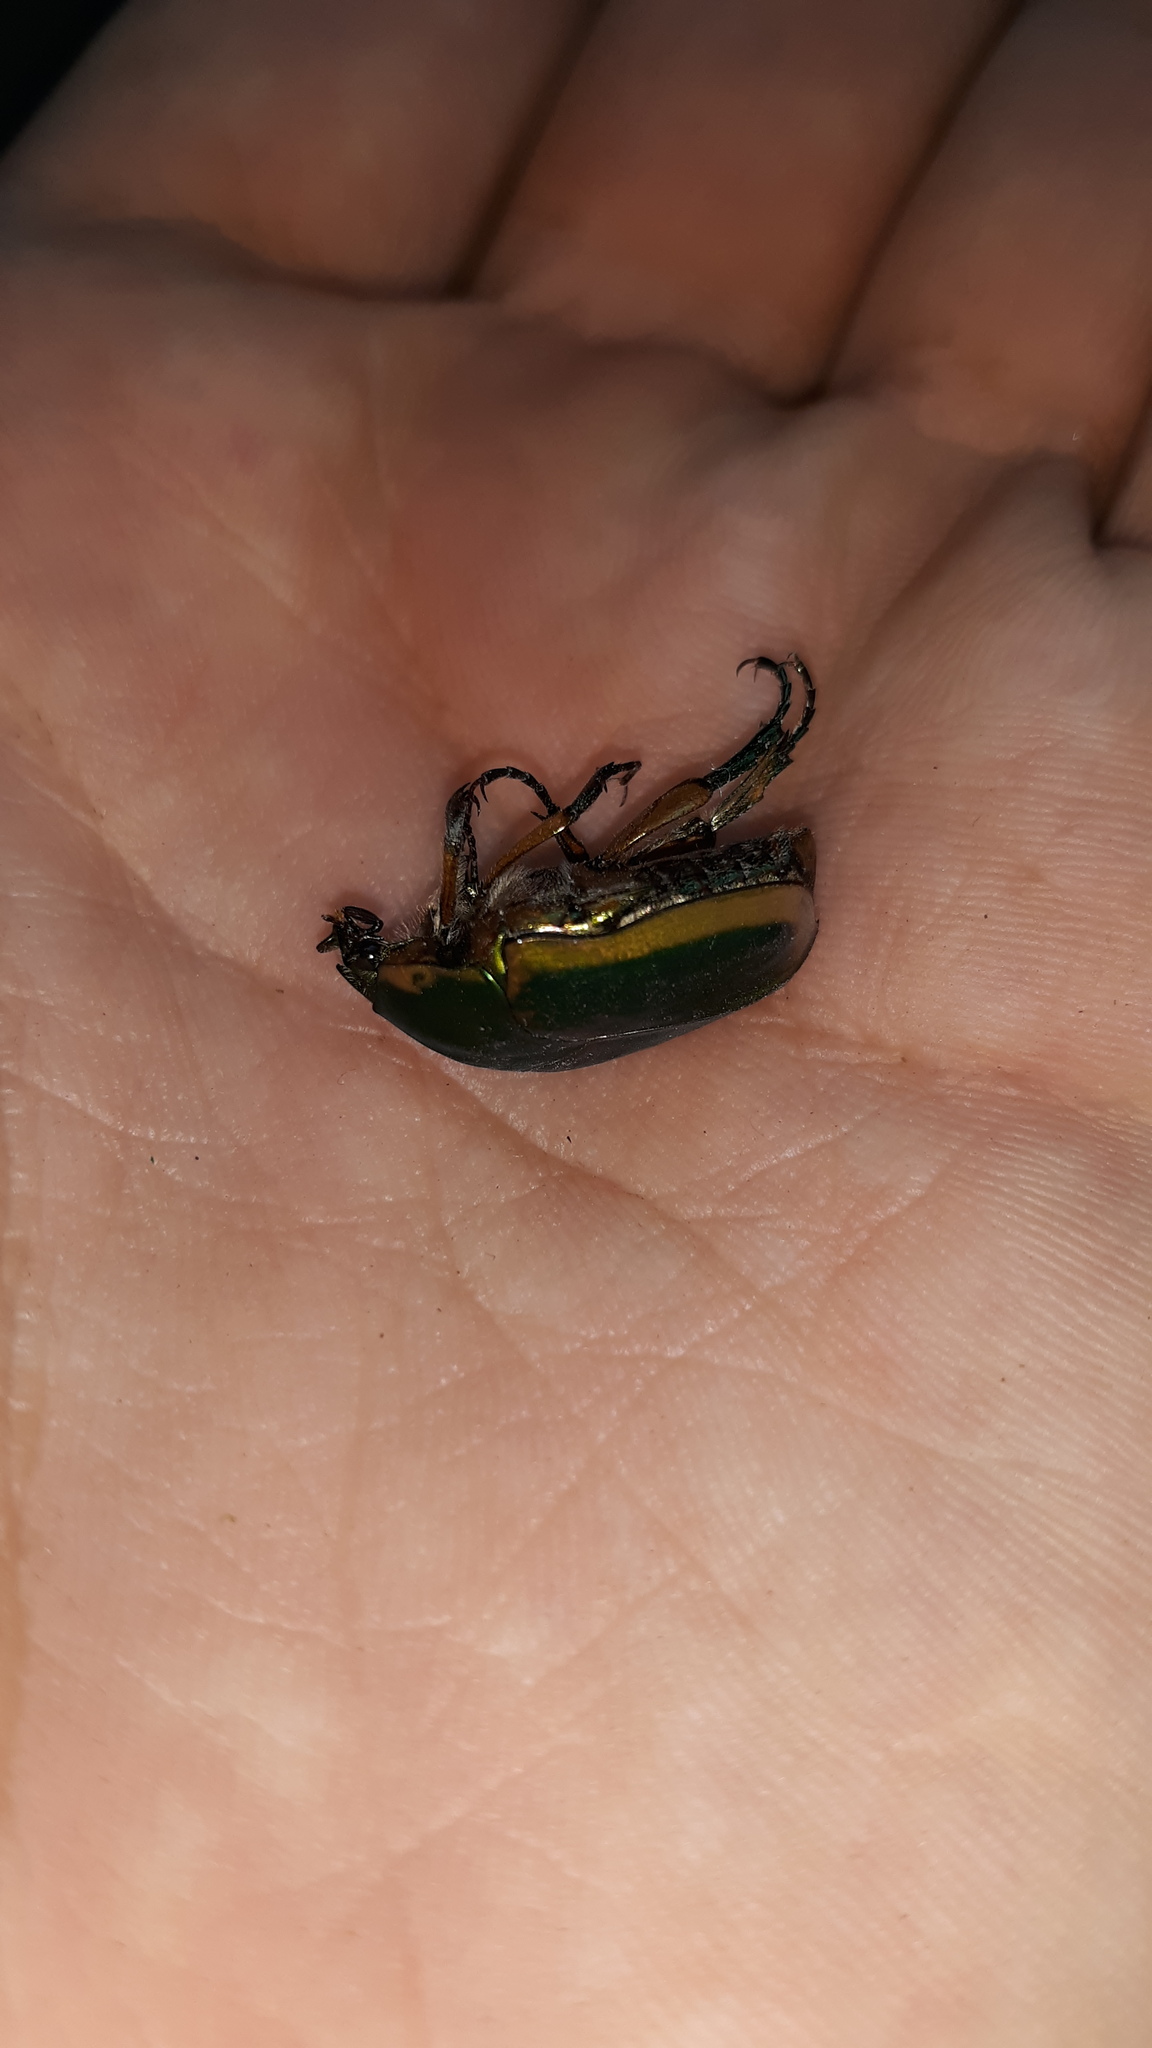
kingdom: Animalia
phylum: Arthropoda
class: Insecta
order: Coleoptera
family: Scarabaeidae
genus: Cotinis
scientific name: Cotinis nitida
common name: Common green june beetle
